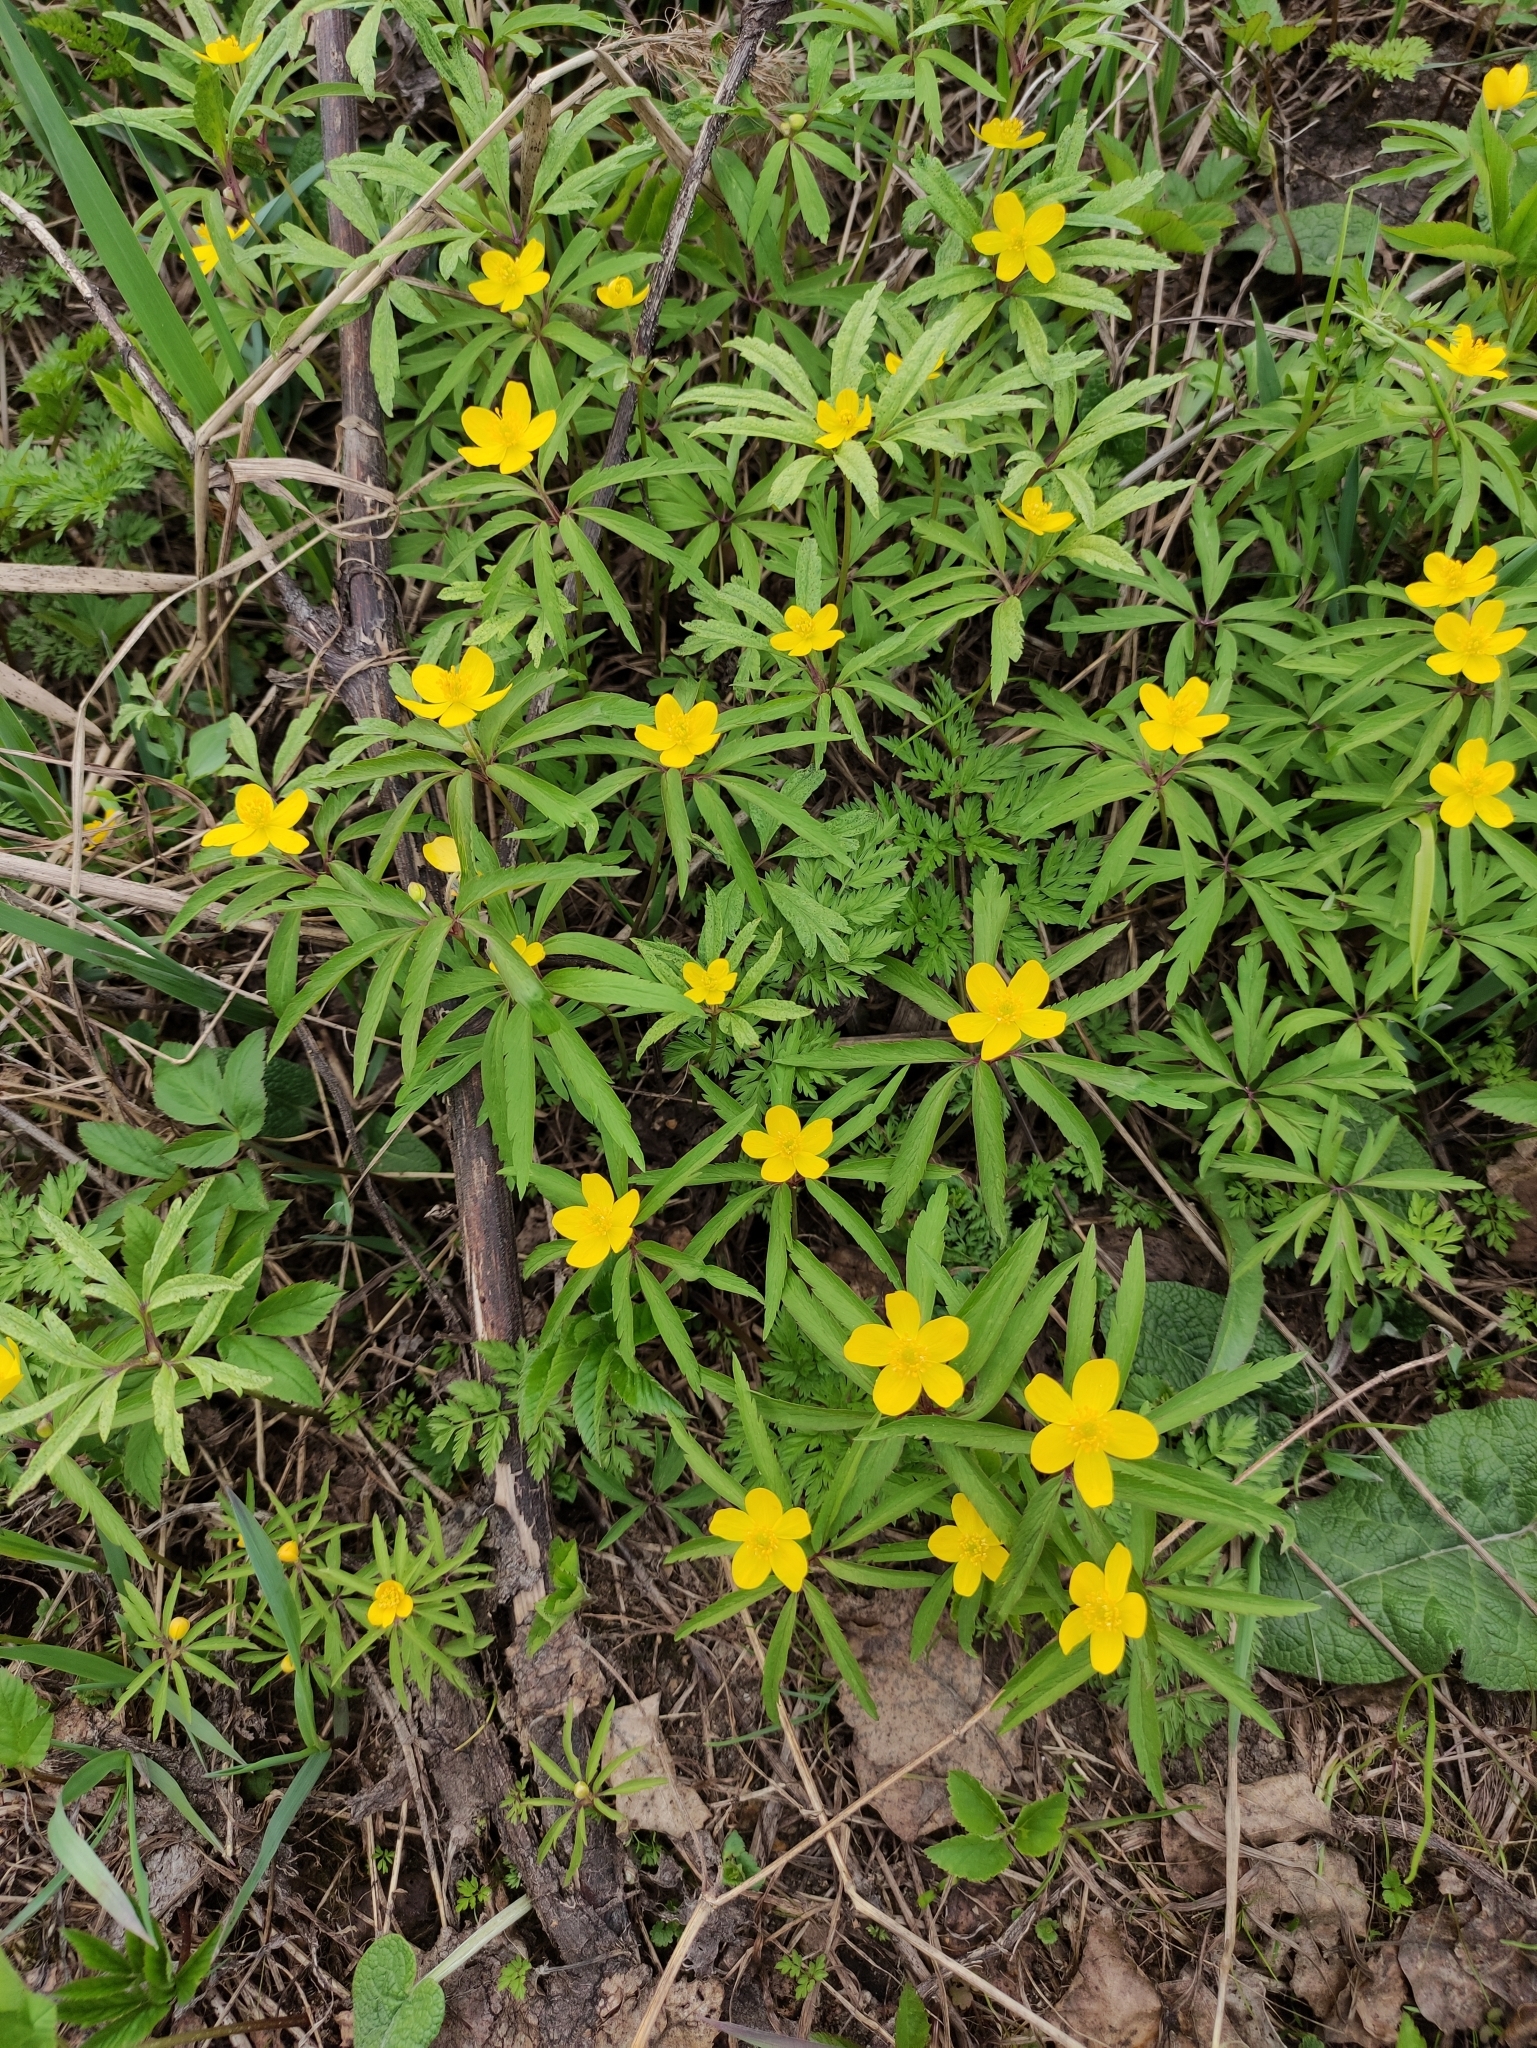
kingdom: Plantae
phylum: Tracheophyta
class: Magnoliopsida
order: Ranunculales
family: Ranunculaceae
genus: Anemone
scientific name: Anemone ranunculoides
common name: Yellow anemone
